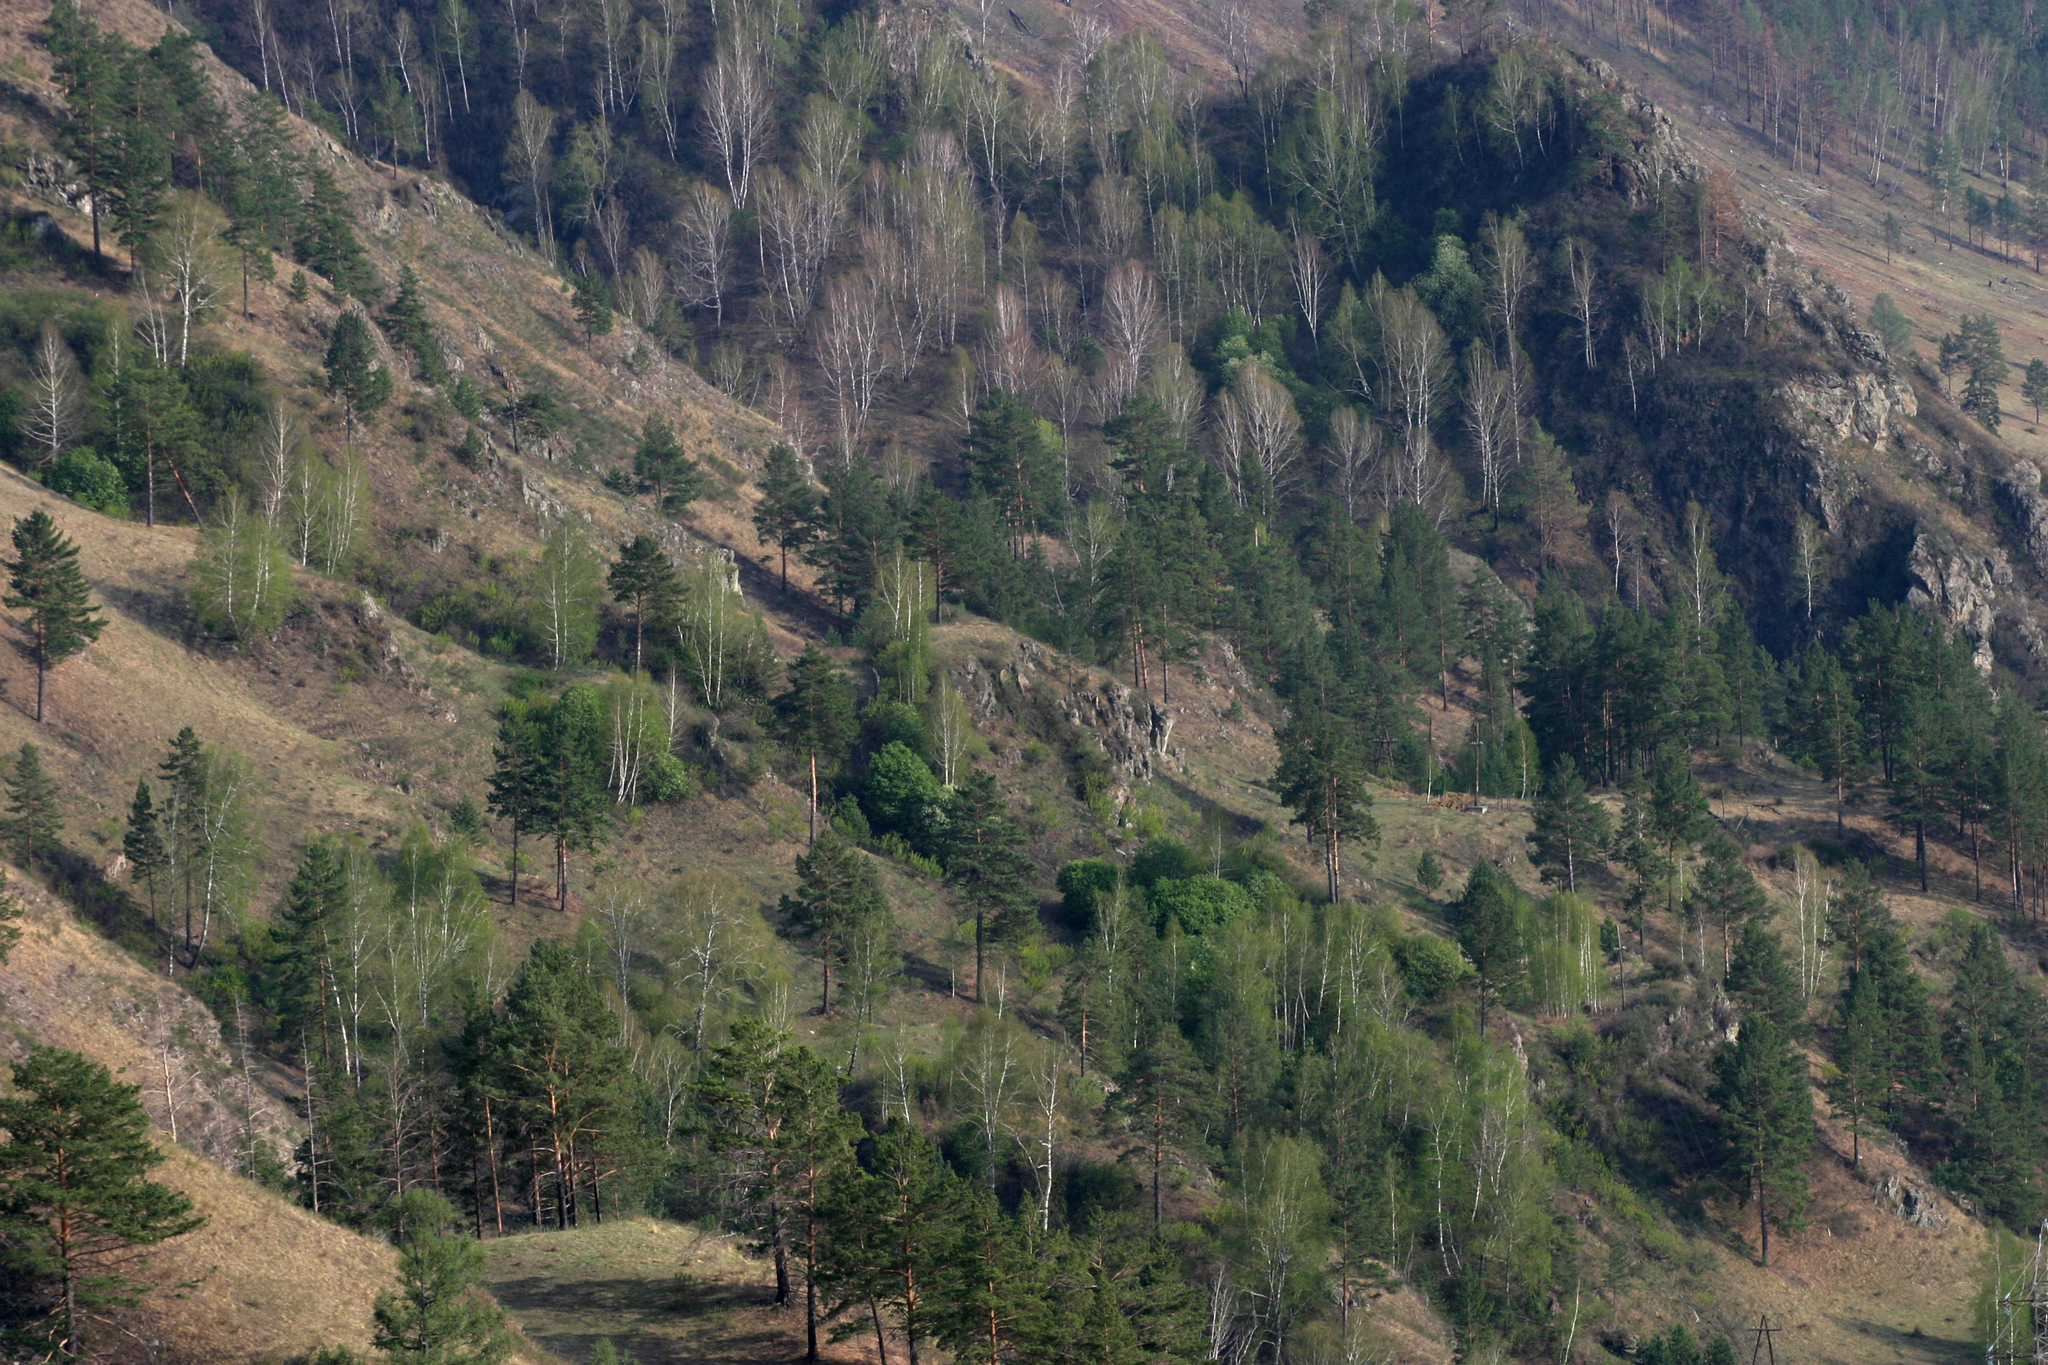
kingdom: Plantae
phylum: Tracheophyta
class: Magnoliopsida
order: Fagales
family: Betulaceae
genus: Betula
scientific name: Betula pendula
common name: Silver birch
